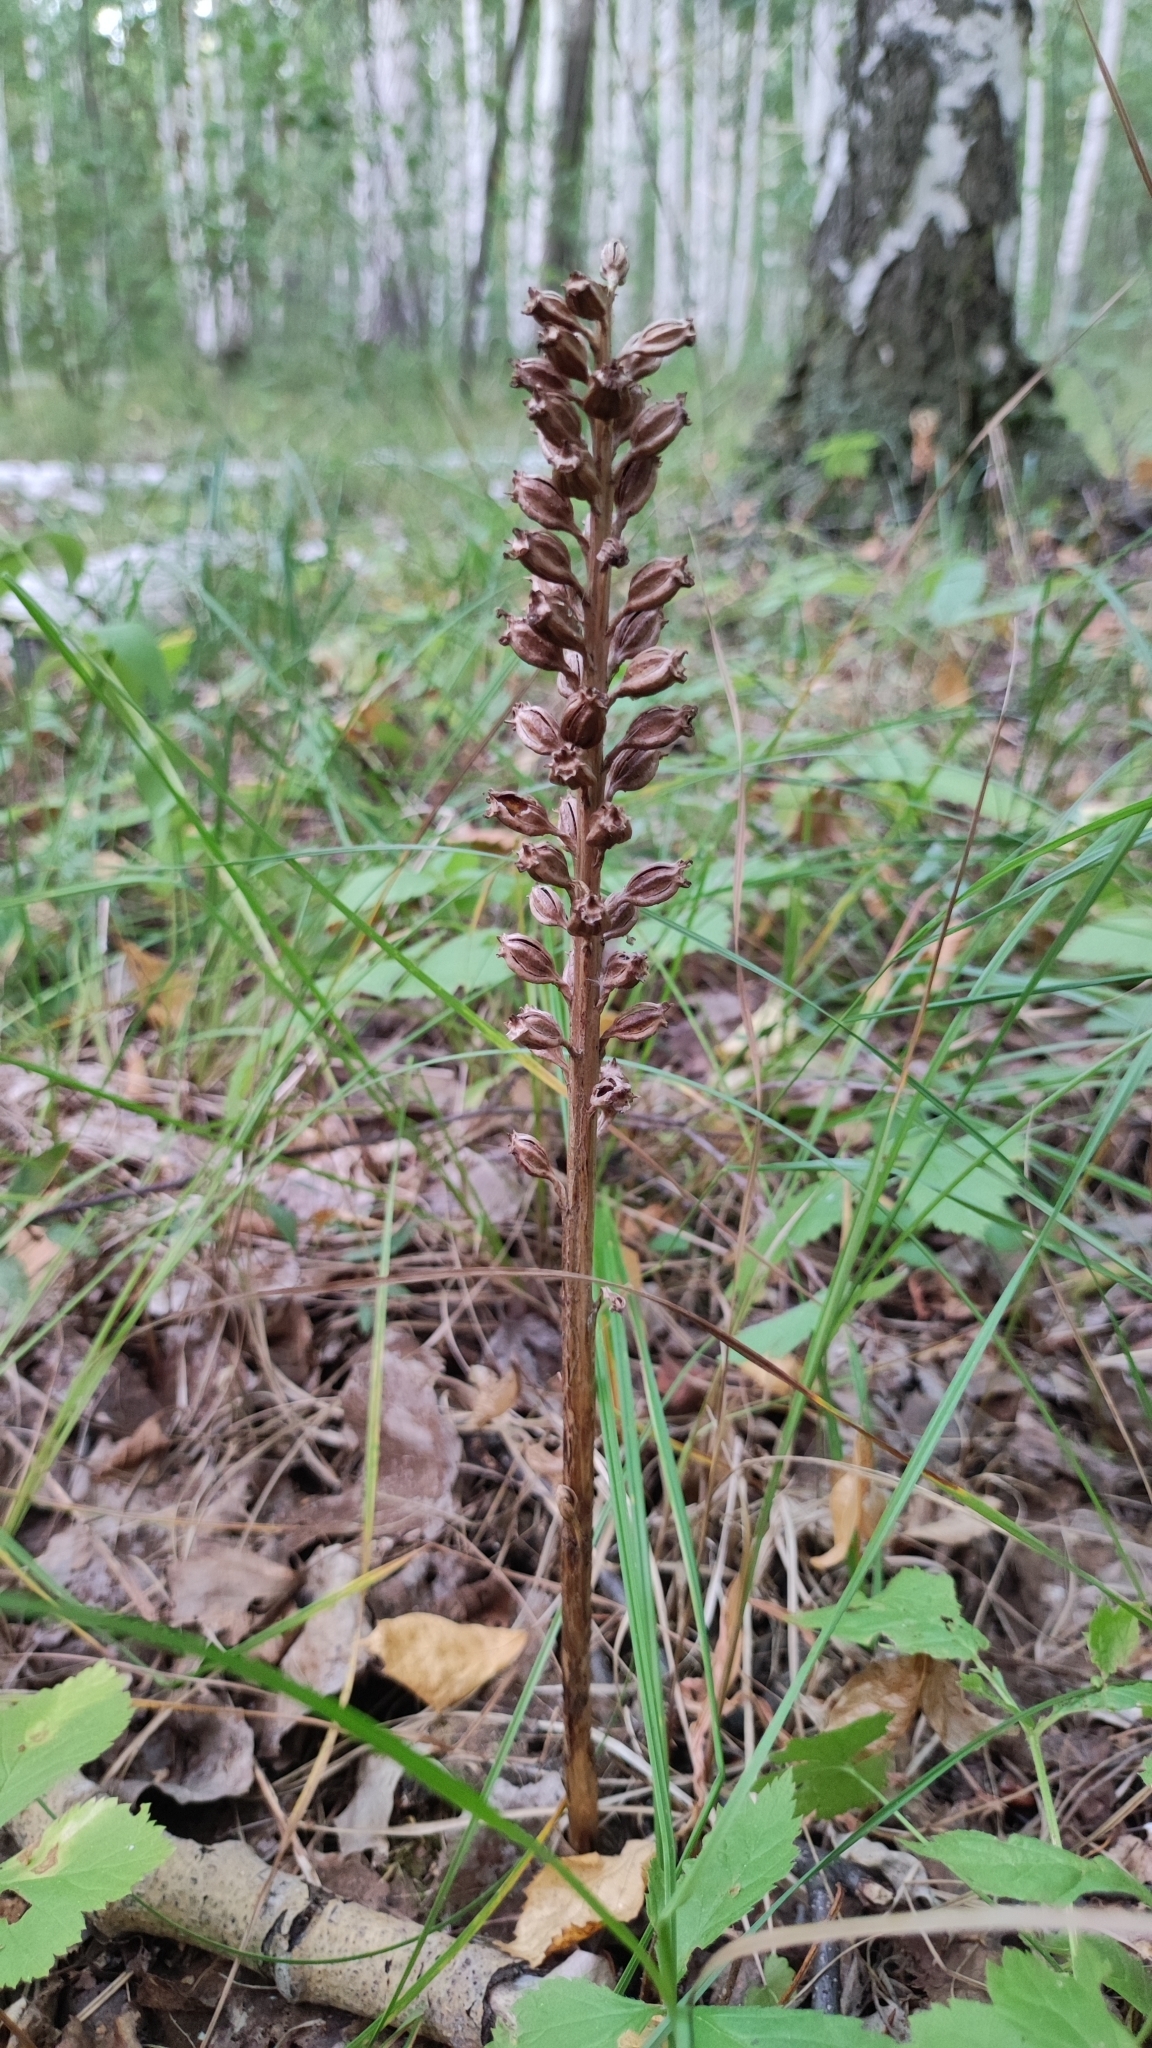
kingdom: Plantae
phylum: Tracheophyta
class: Liliopsida
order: Asparagales
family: Orchidaceae
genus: Neottia
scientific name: Neottia nidus-avis
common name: Bird's-nest orchid
